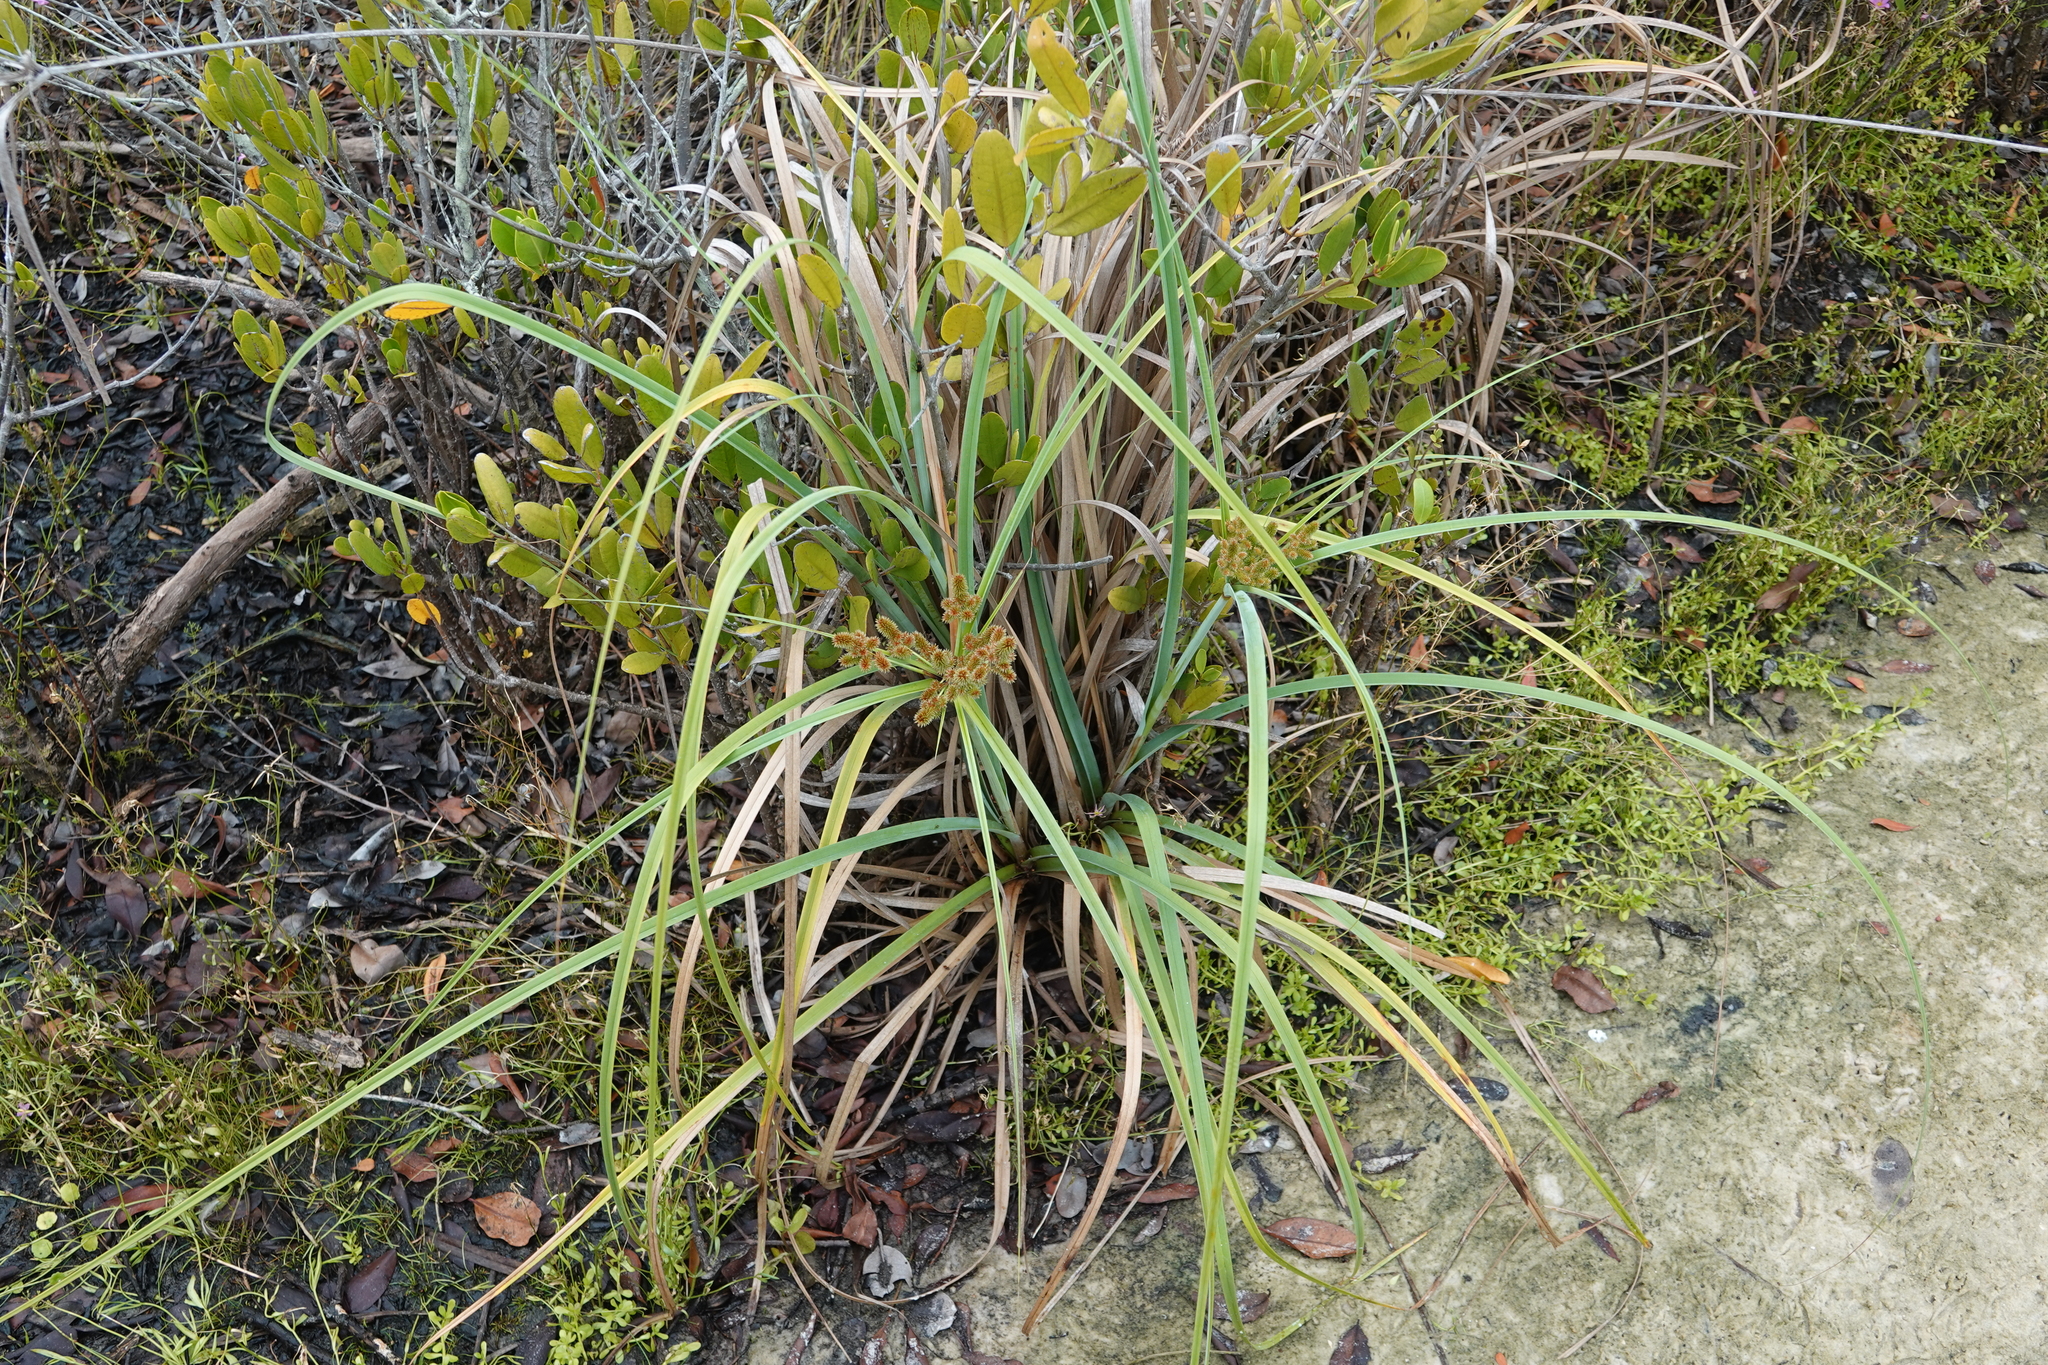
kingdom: Plantae
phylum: Tracheophyta
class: Liliopsida
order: Poales
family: Cyperaceae
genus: Cyperus
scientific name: Cyperus ligularis
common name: Swamp flat sedge
